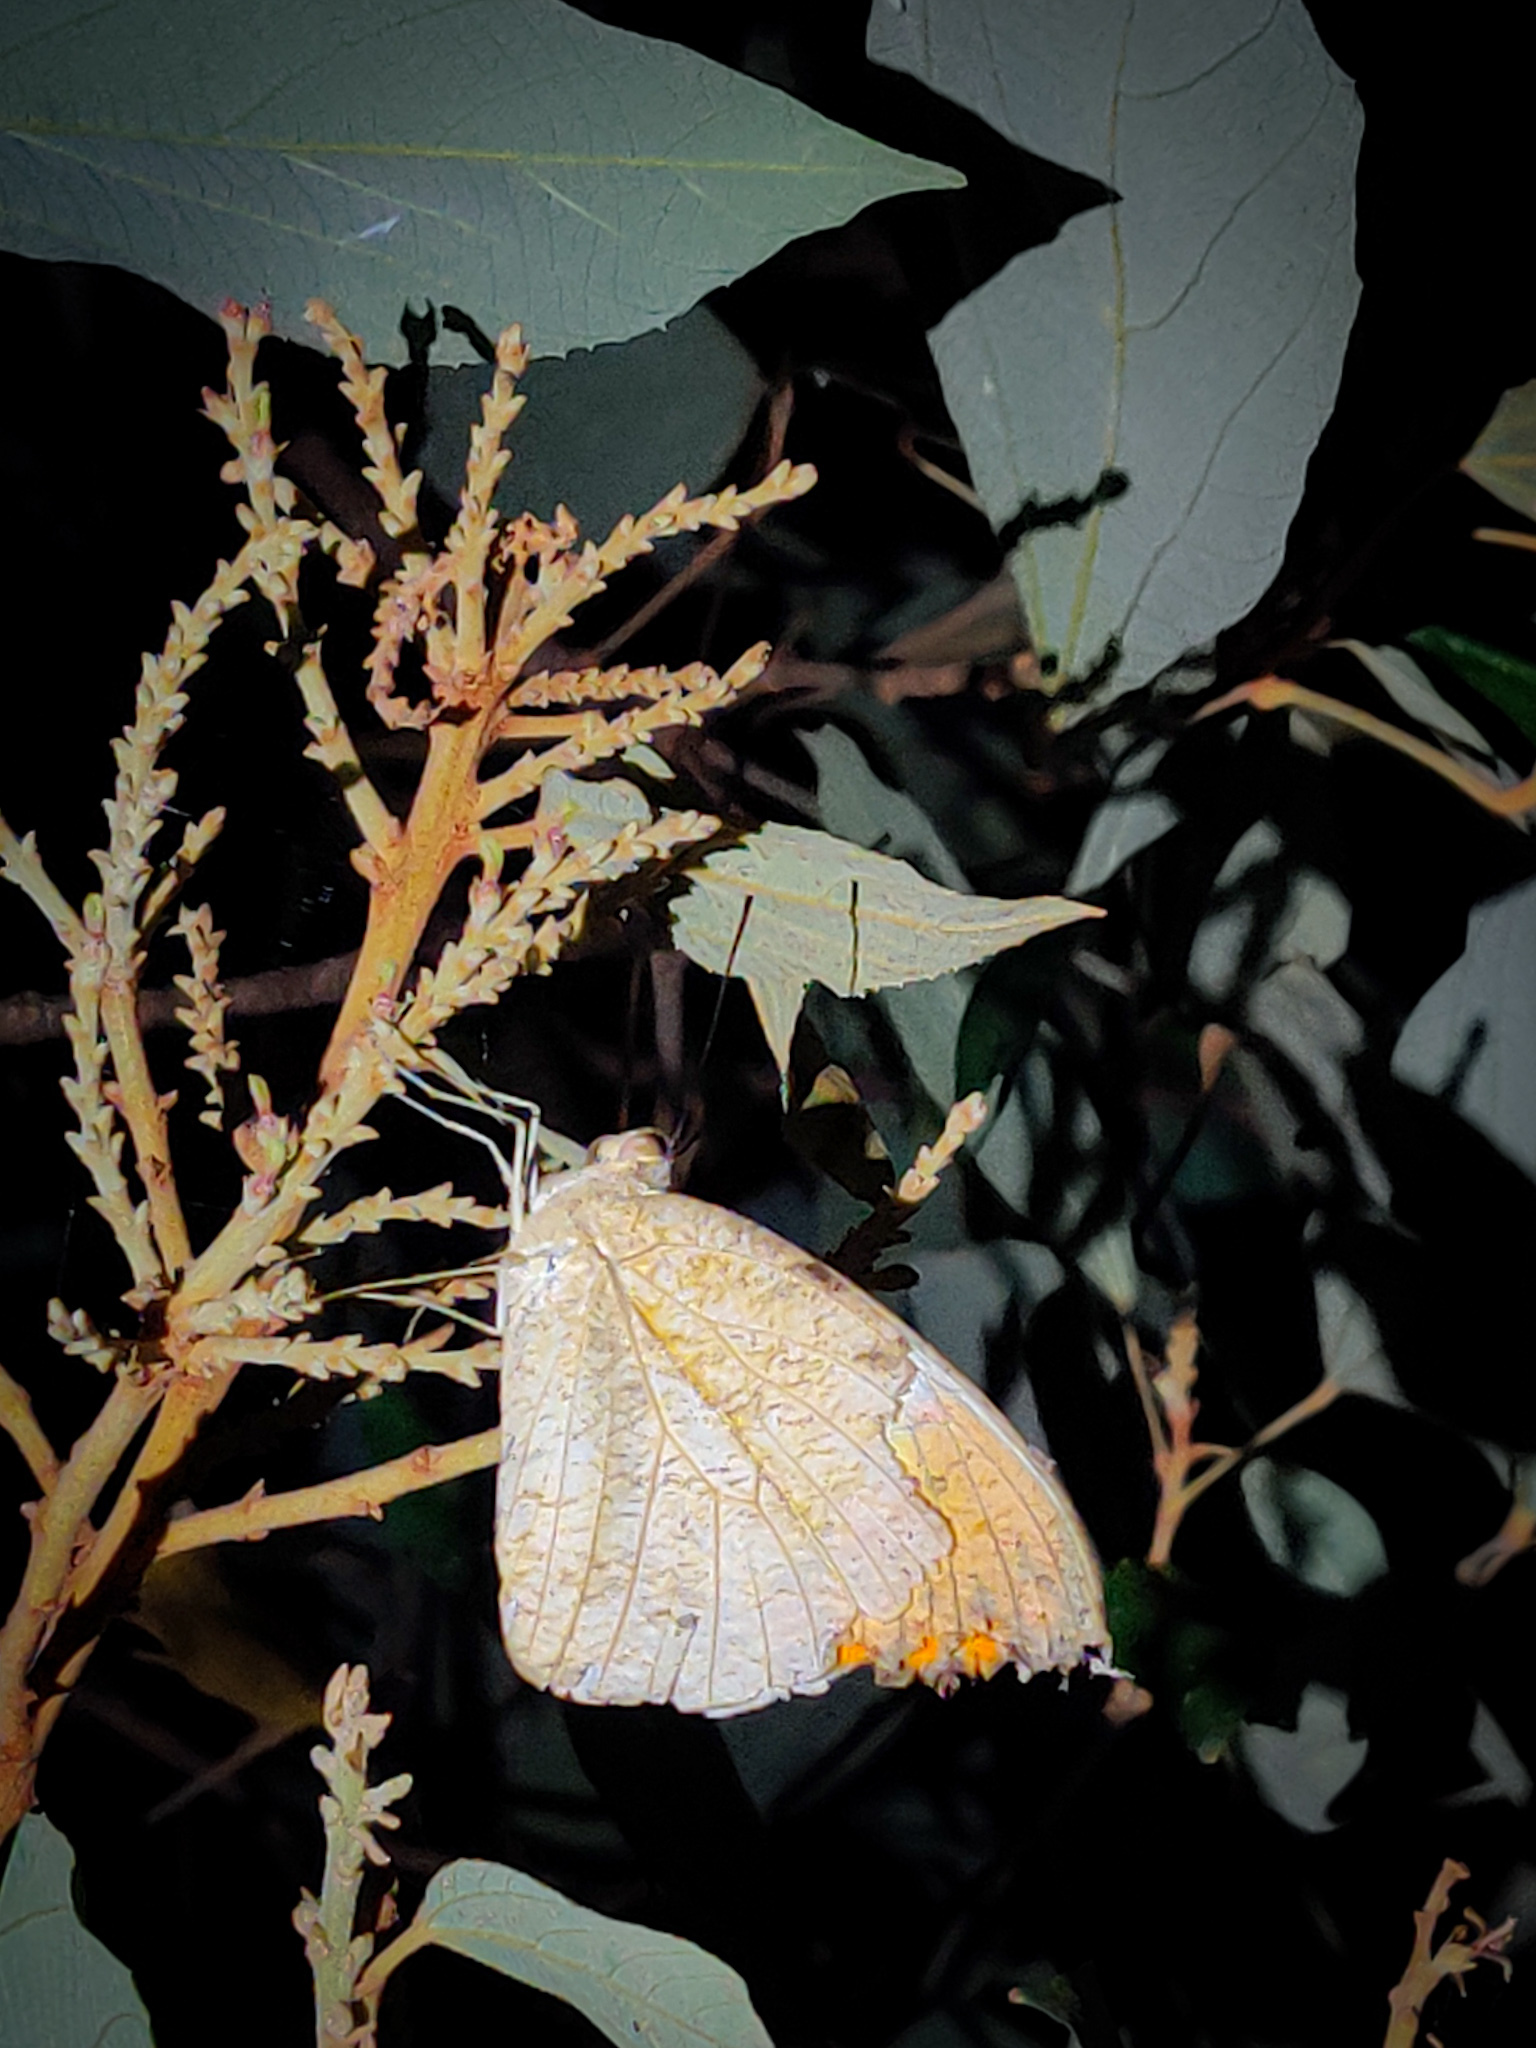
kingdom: Animalia
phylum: Arthropoda
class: Insecta
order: Lepidoptera
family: Pieridae
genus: Hebomoia
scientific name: Hebomoia glaucippe
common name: Great orange tip
